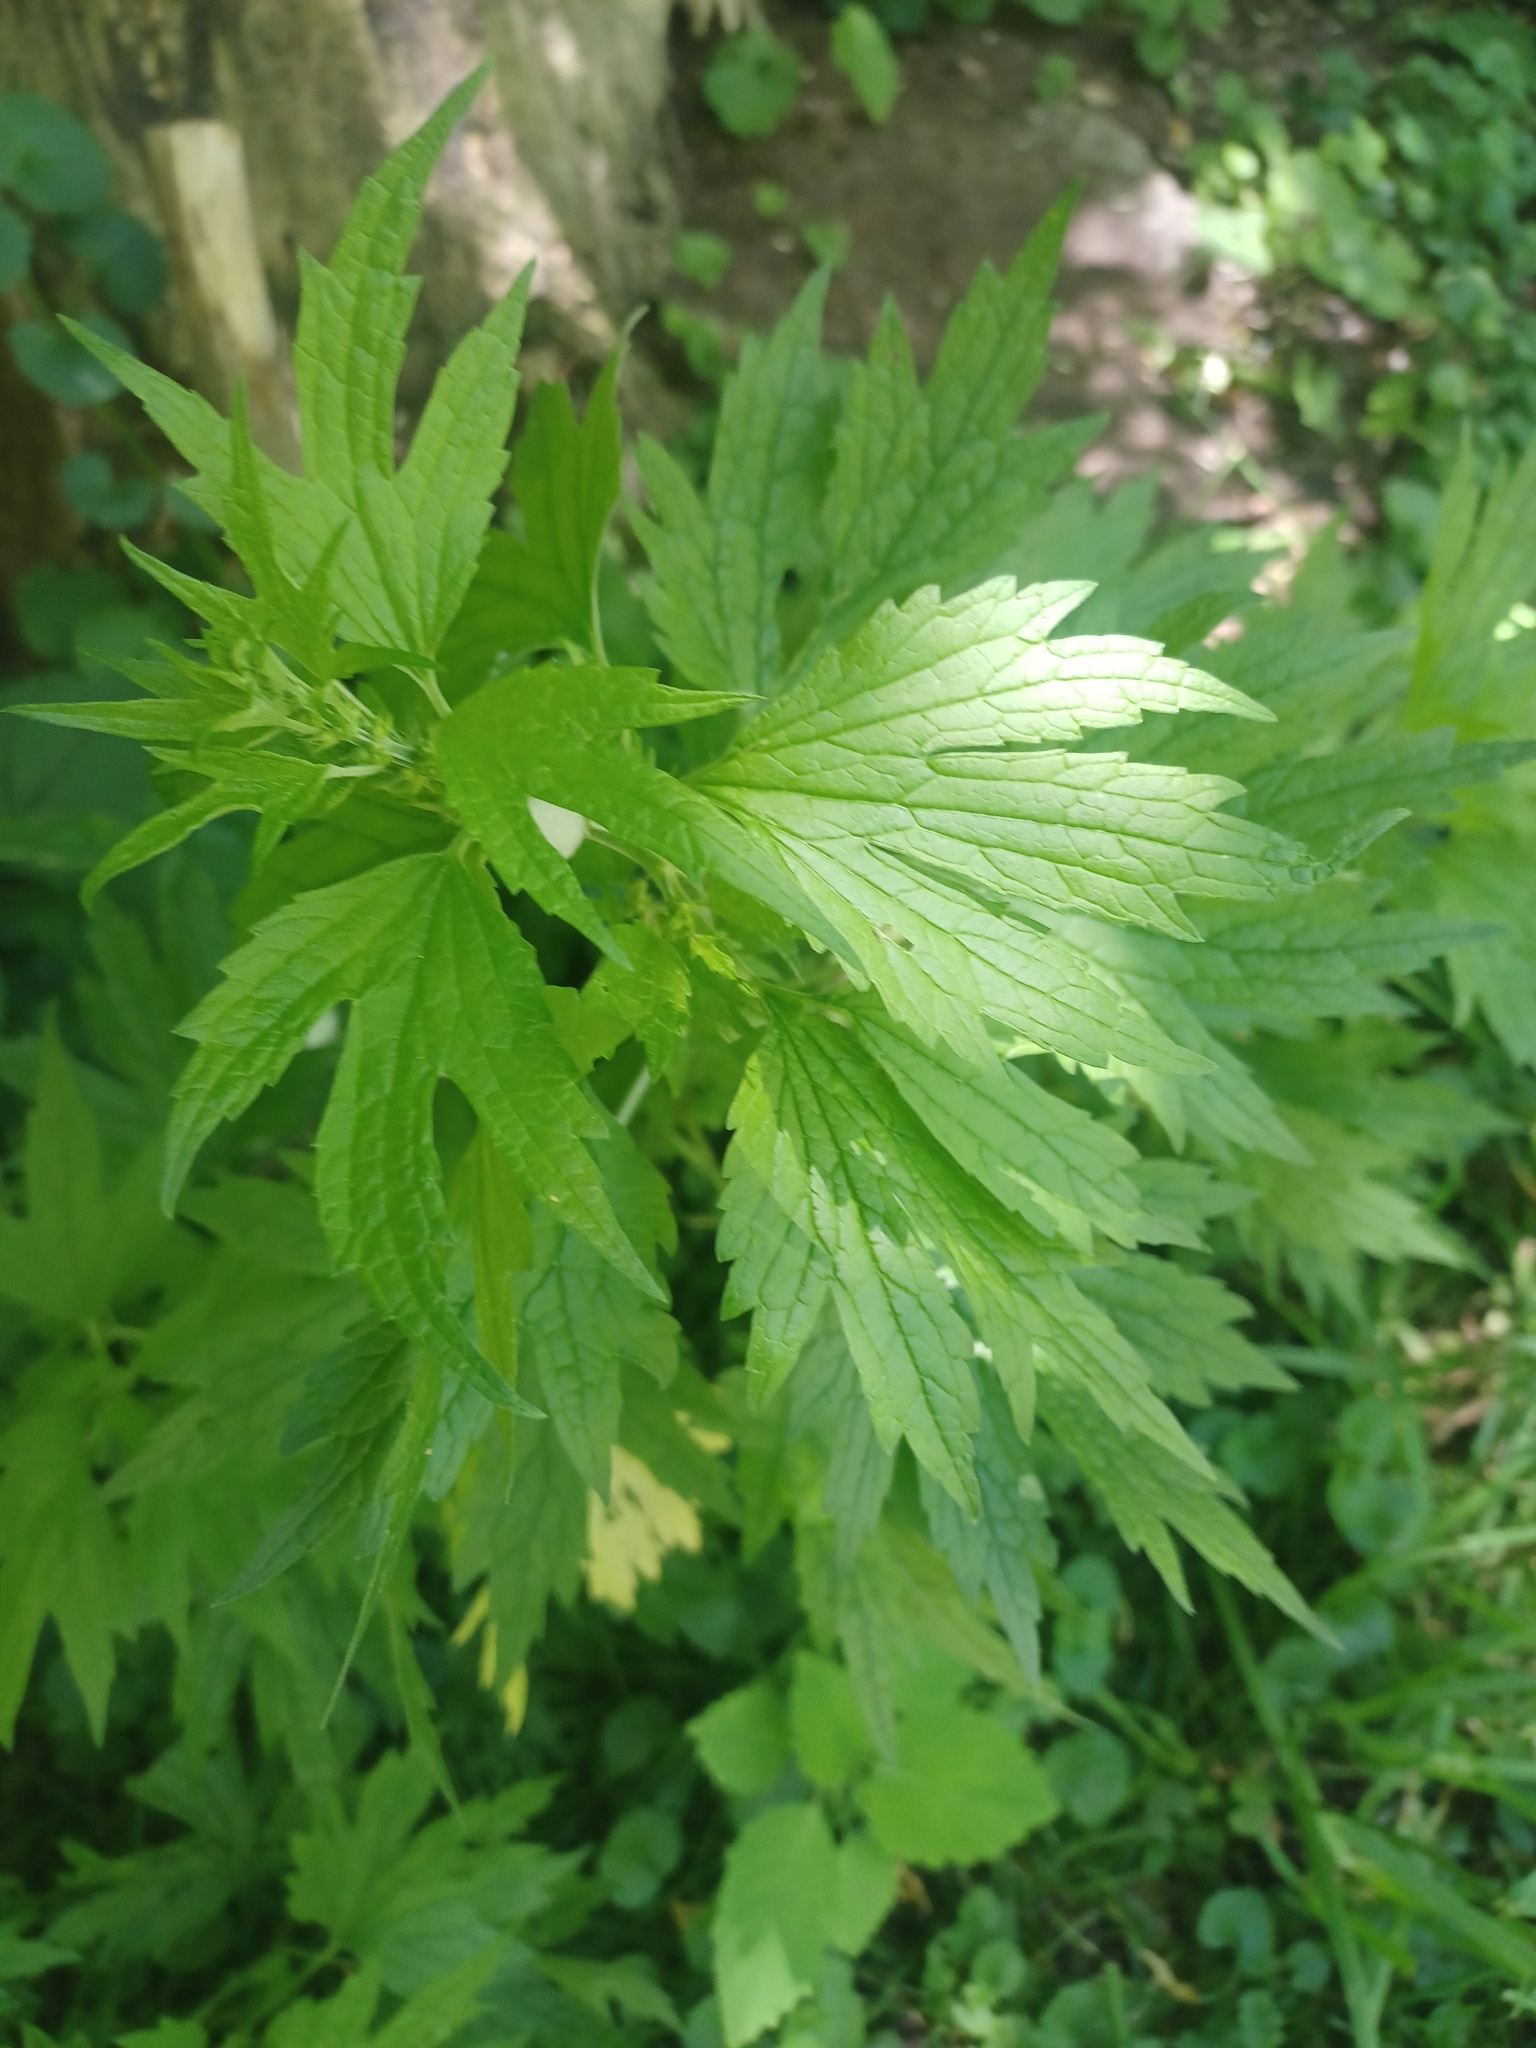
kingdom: Plantae
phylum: Tracheophyta
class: Magnoliopsida
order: Lamiales
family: Lamiaceae
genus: Leonurus
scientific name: Leonurus cardiaca
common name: Motherwort
